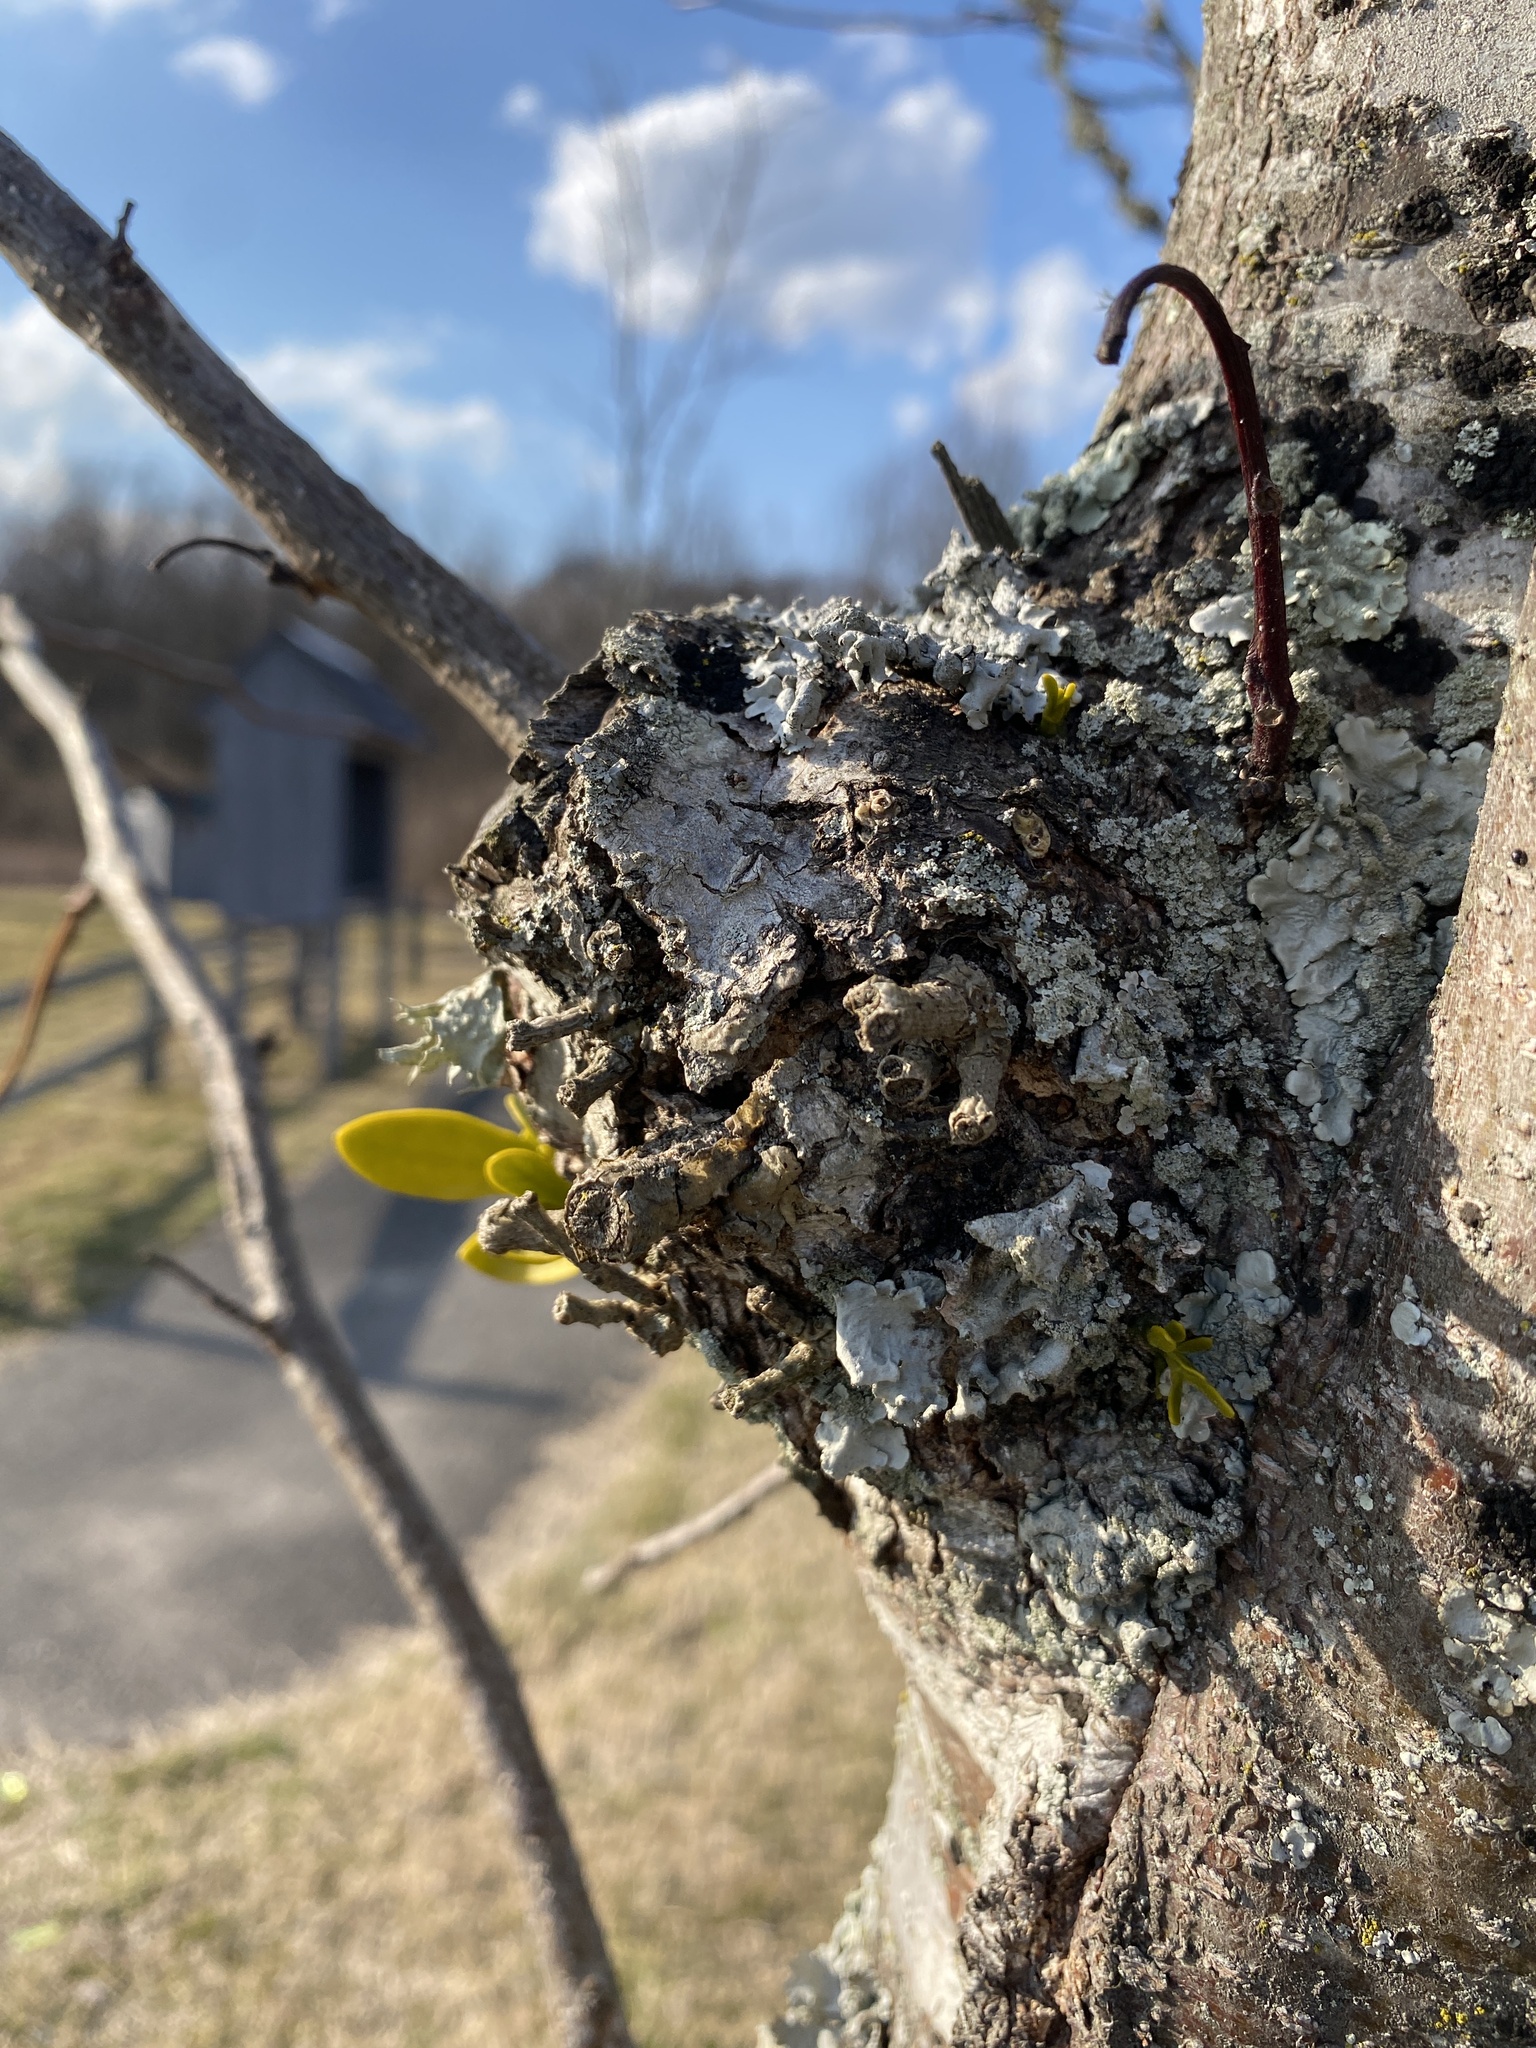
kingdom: Plantae
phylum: Tracheophyta
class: Magnoliopsida
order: Santalales
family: Viscaceae
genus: Phoradendron
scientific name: Phoradendron leucarpum
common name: Pacific mistletoe
